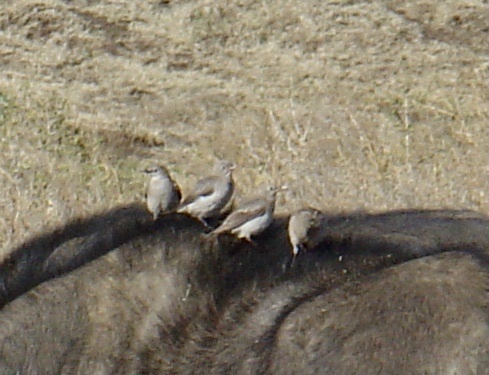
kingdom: Animalia
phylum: Chordata
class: Aves
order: Passeriformes
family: Sturnidae
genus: Creatophora
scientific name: Creatophora cinerea
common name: Wattled starling
